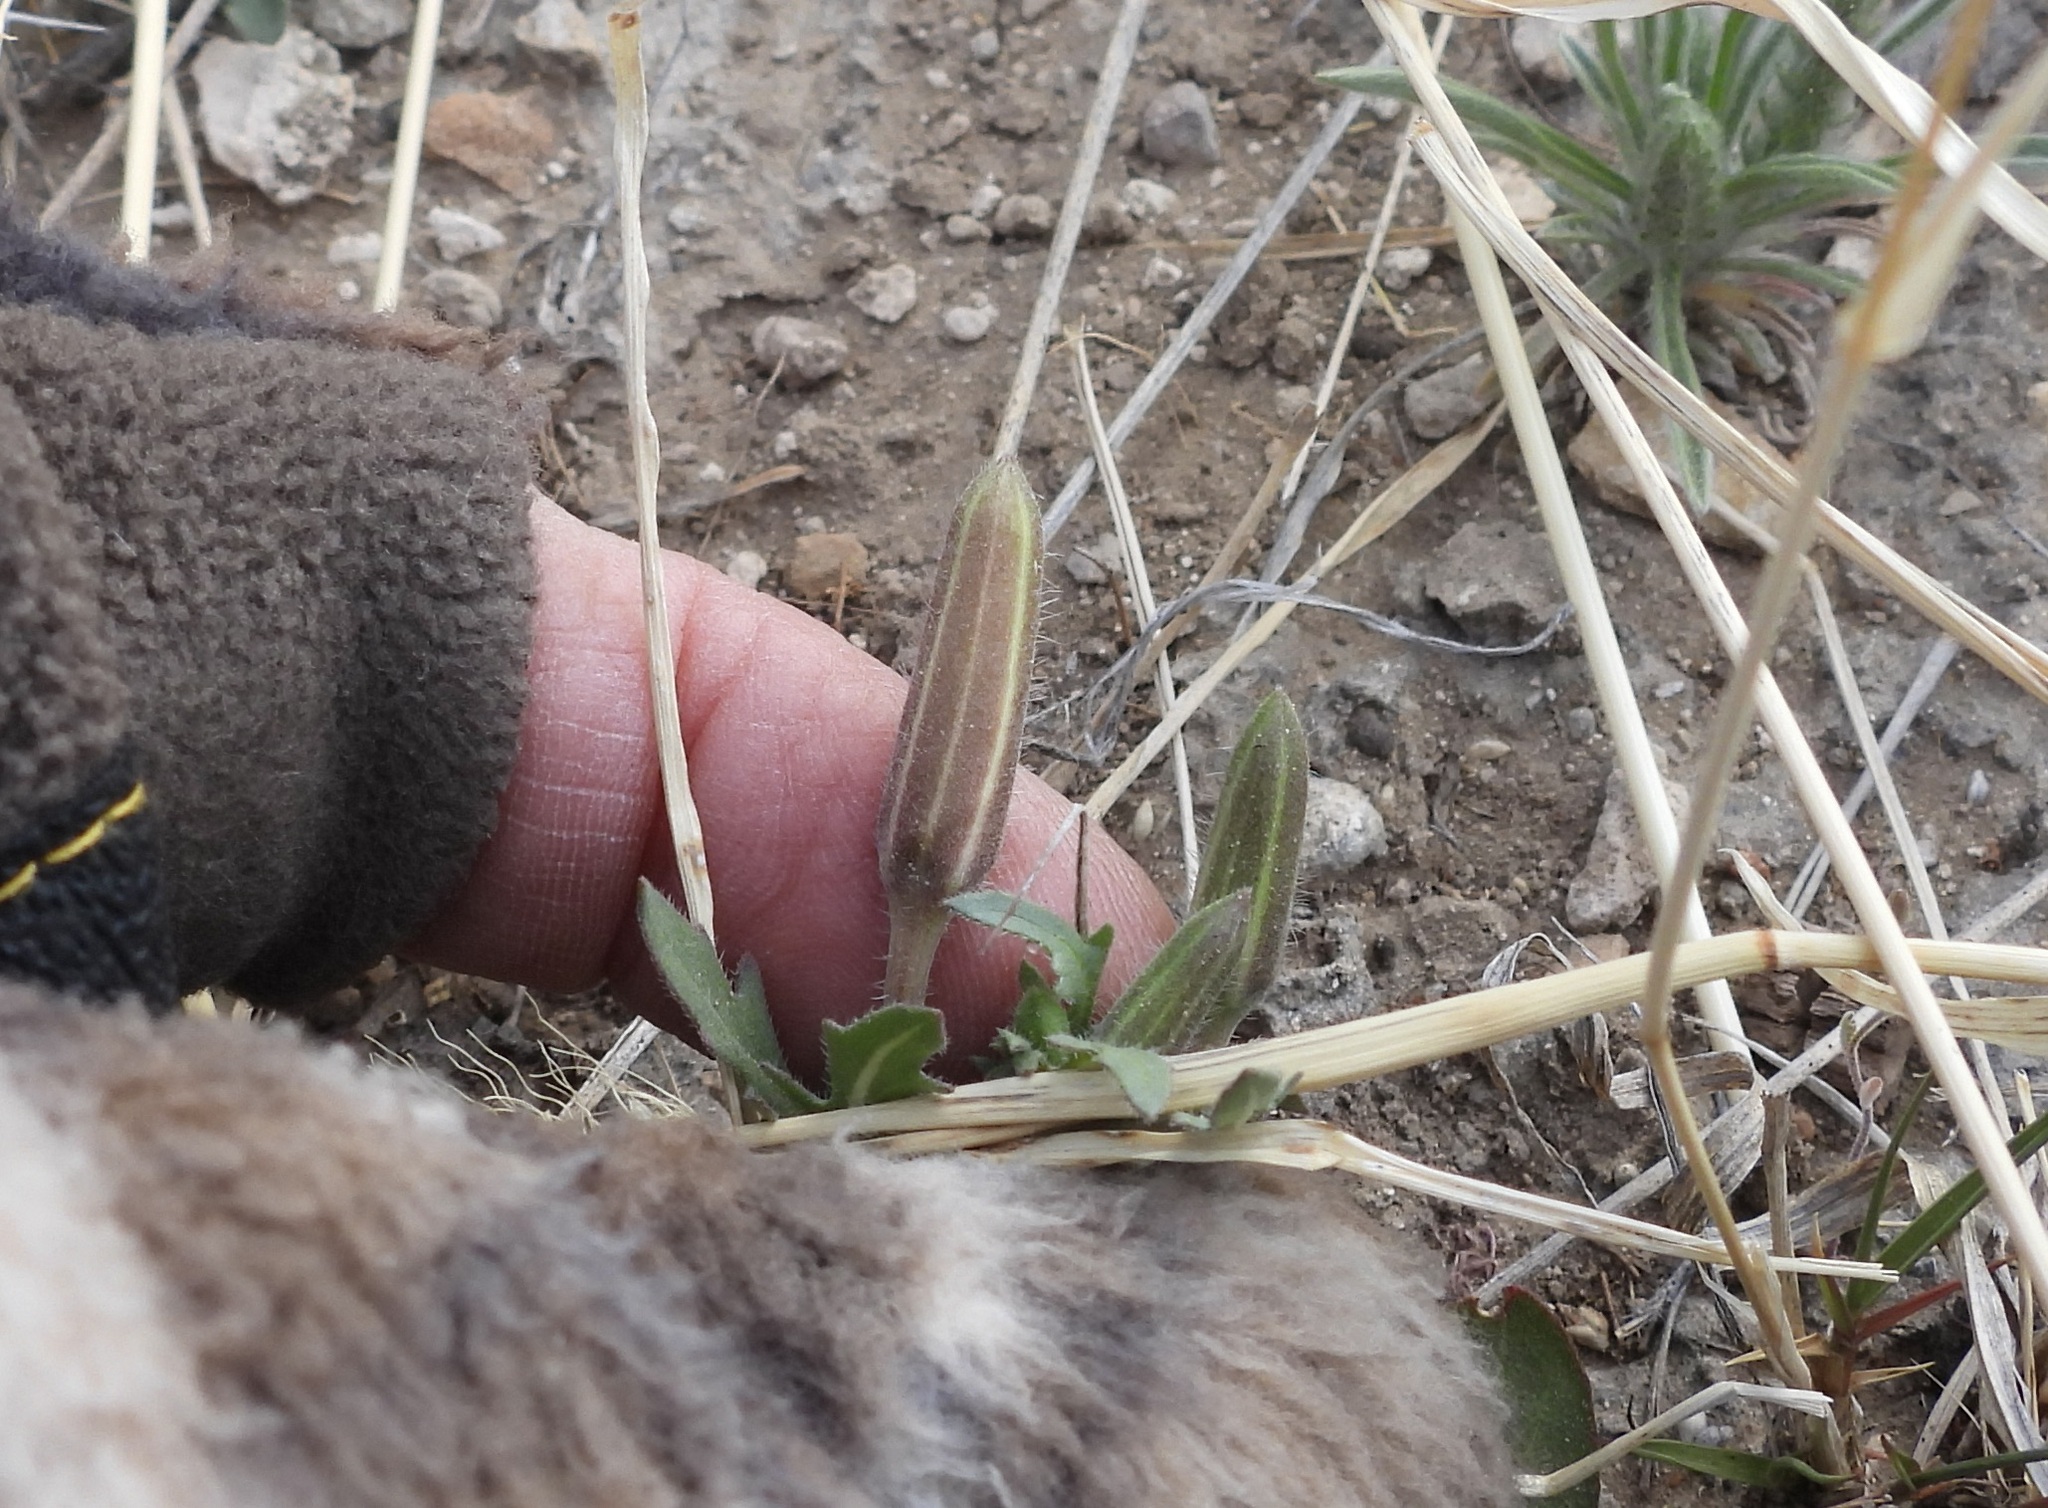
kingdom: Plantae
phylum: Tracheophyta
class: Magnoliopsida
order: Myrtales
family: Onagraceae
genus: Oenothera
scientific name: Oenothera albicaulis
